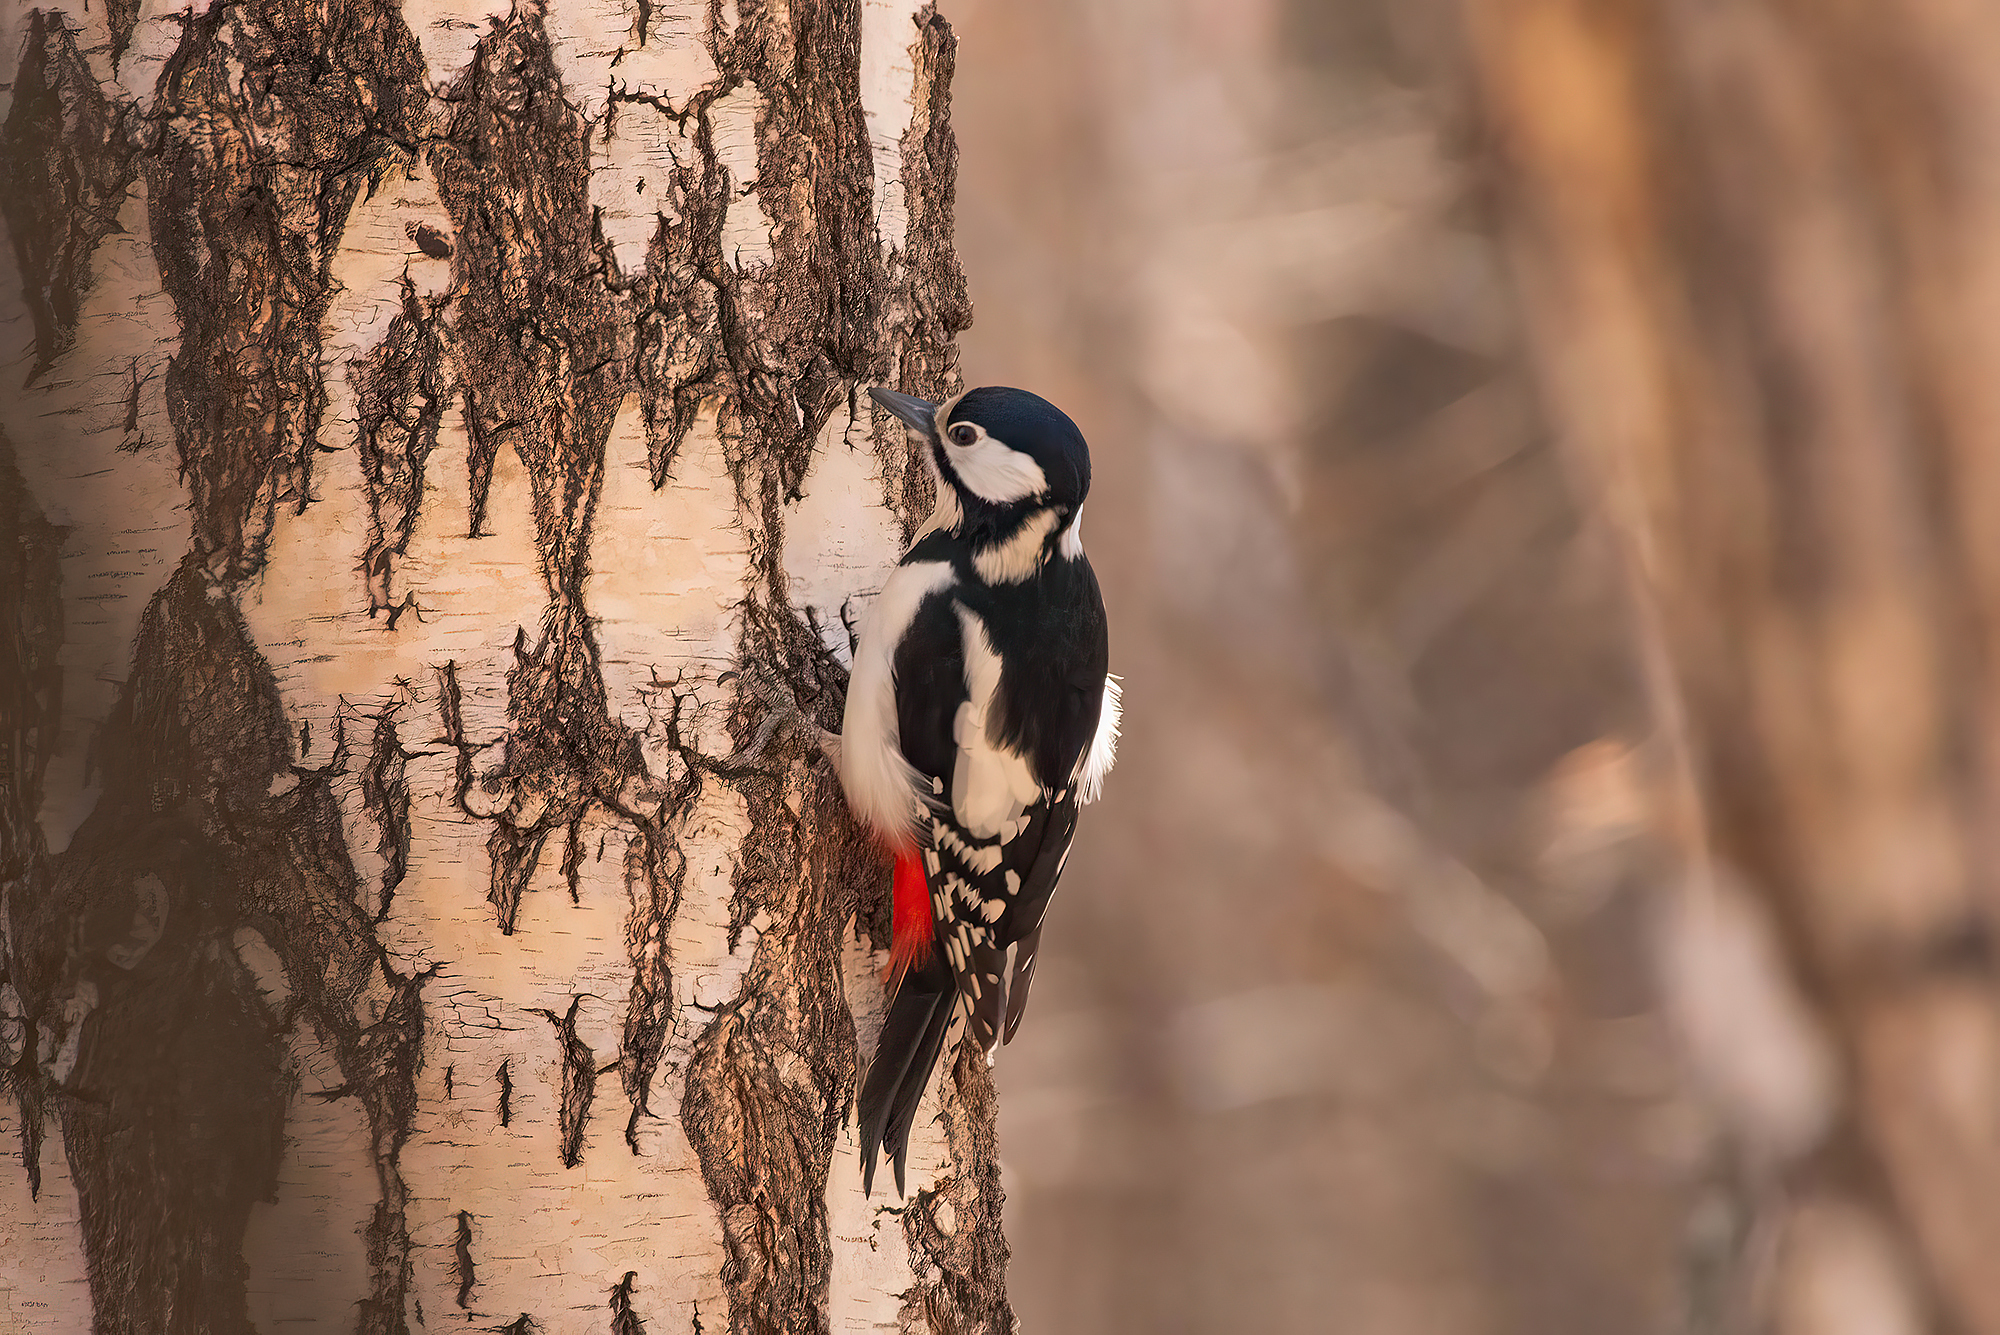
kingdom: Animalia
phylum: Chordata
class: Aves
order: Piciformes
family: Picidae
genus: Dendrocopos
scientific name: Dendrocopos major
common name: Great spotted woodpecker
